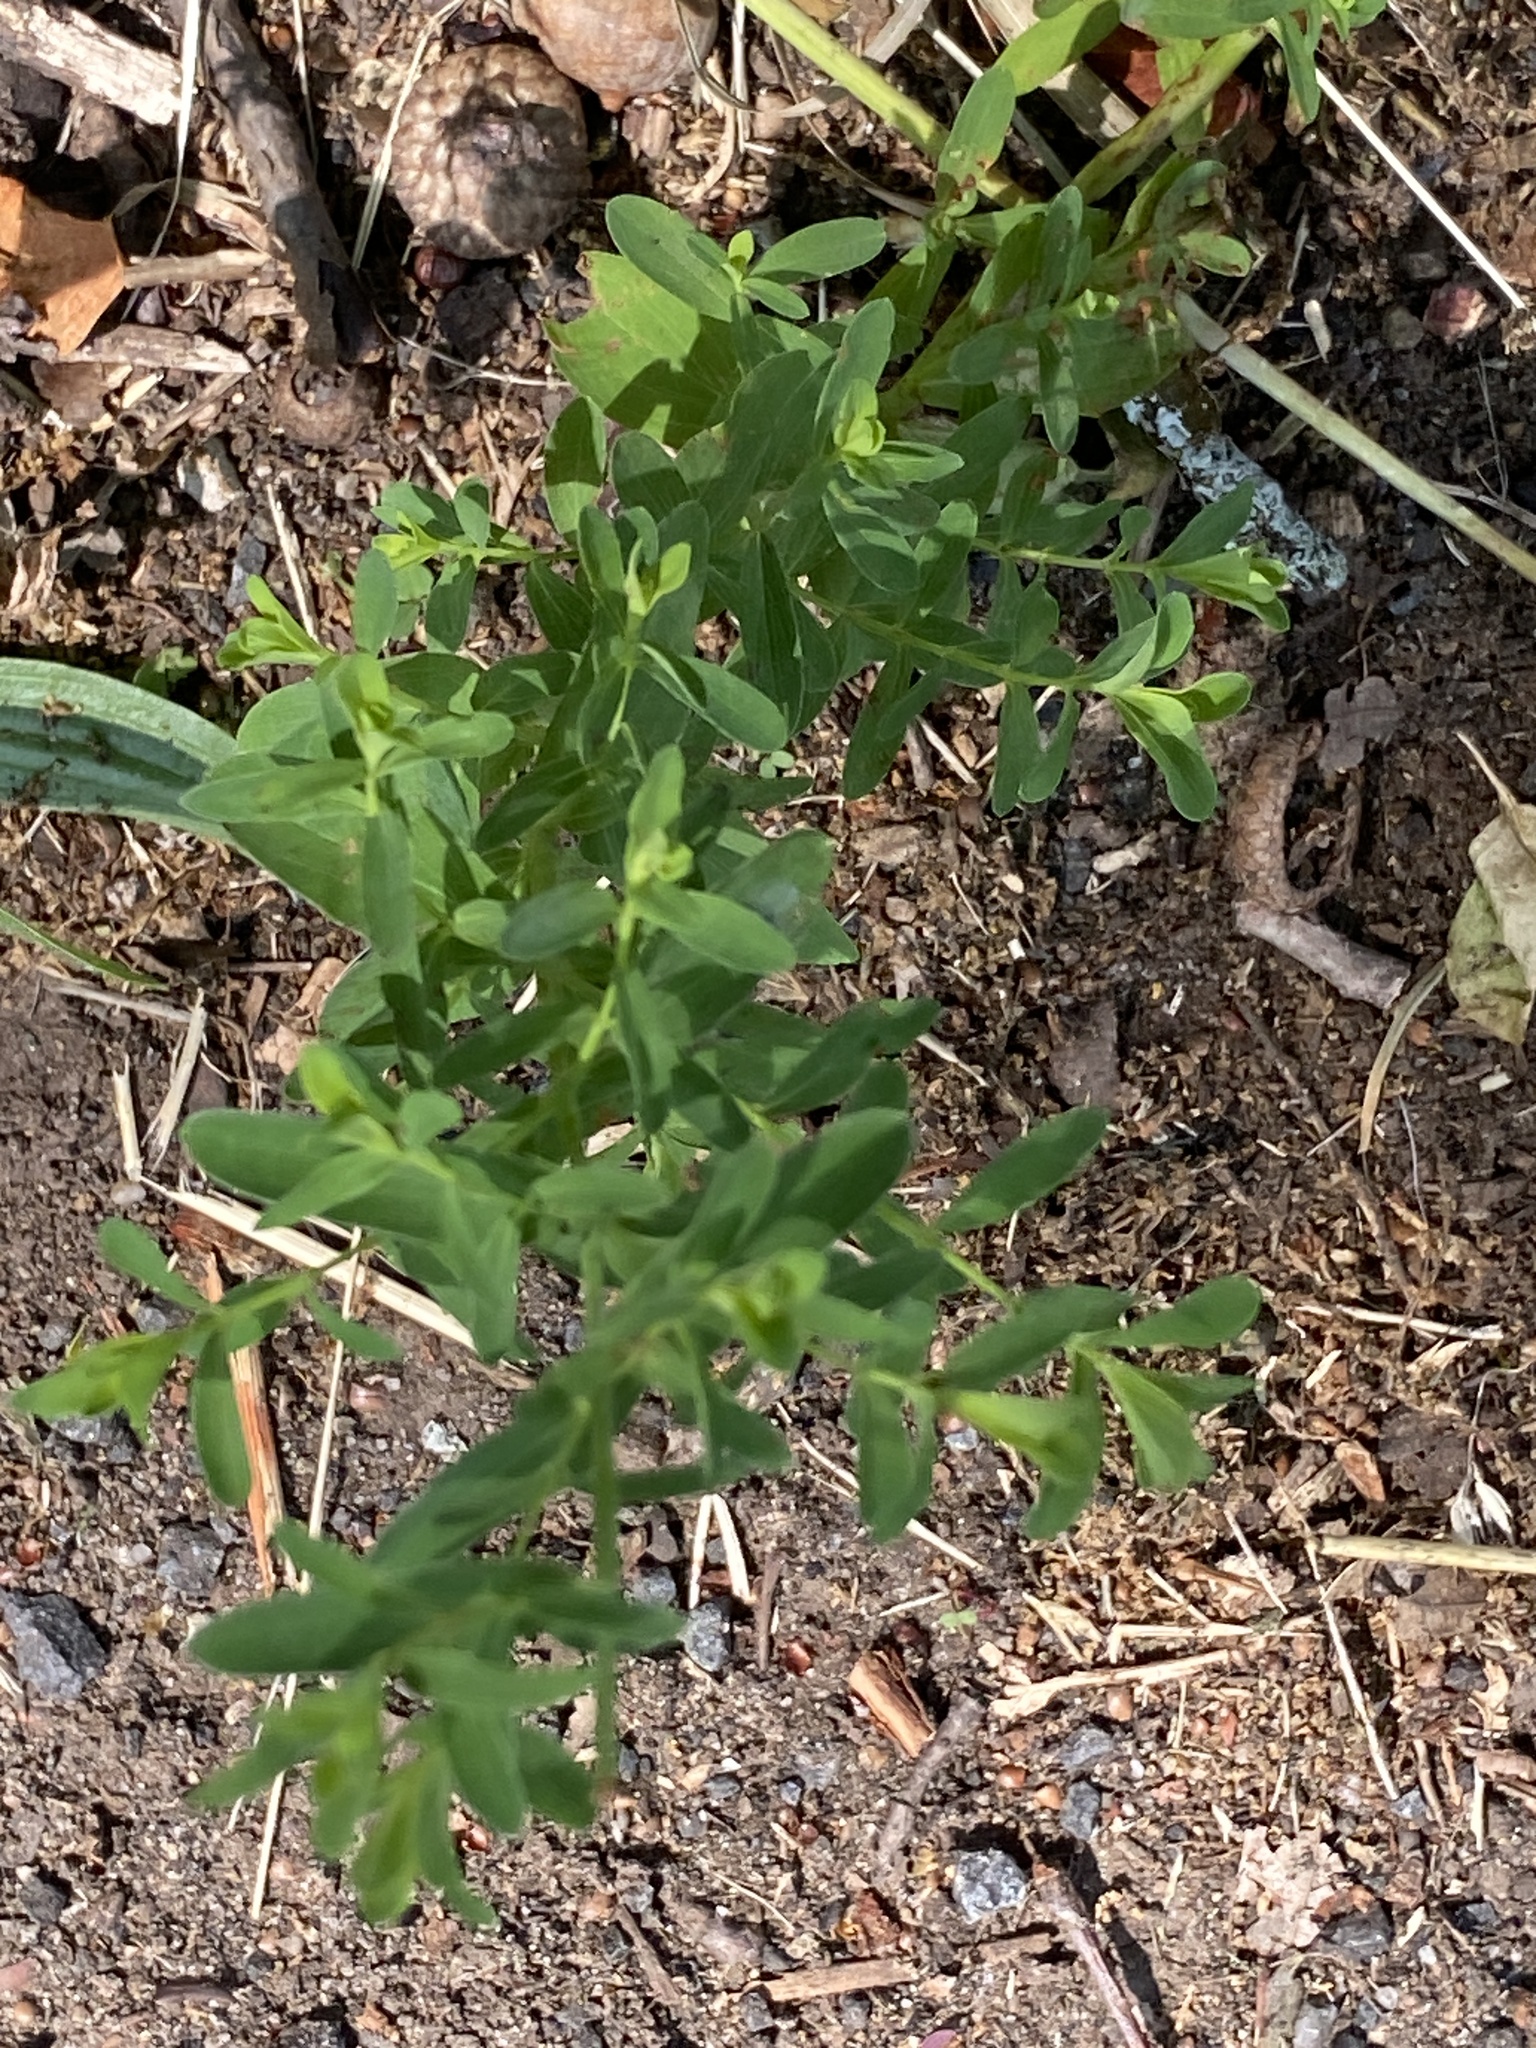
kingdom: Plantae
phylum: Tracheophyta
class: Magnoliopsida
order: Malpighiales
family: Hypericaceae
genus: Hypericum
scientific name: Hypericum perforatum
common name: Common st. johnswort
